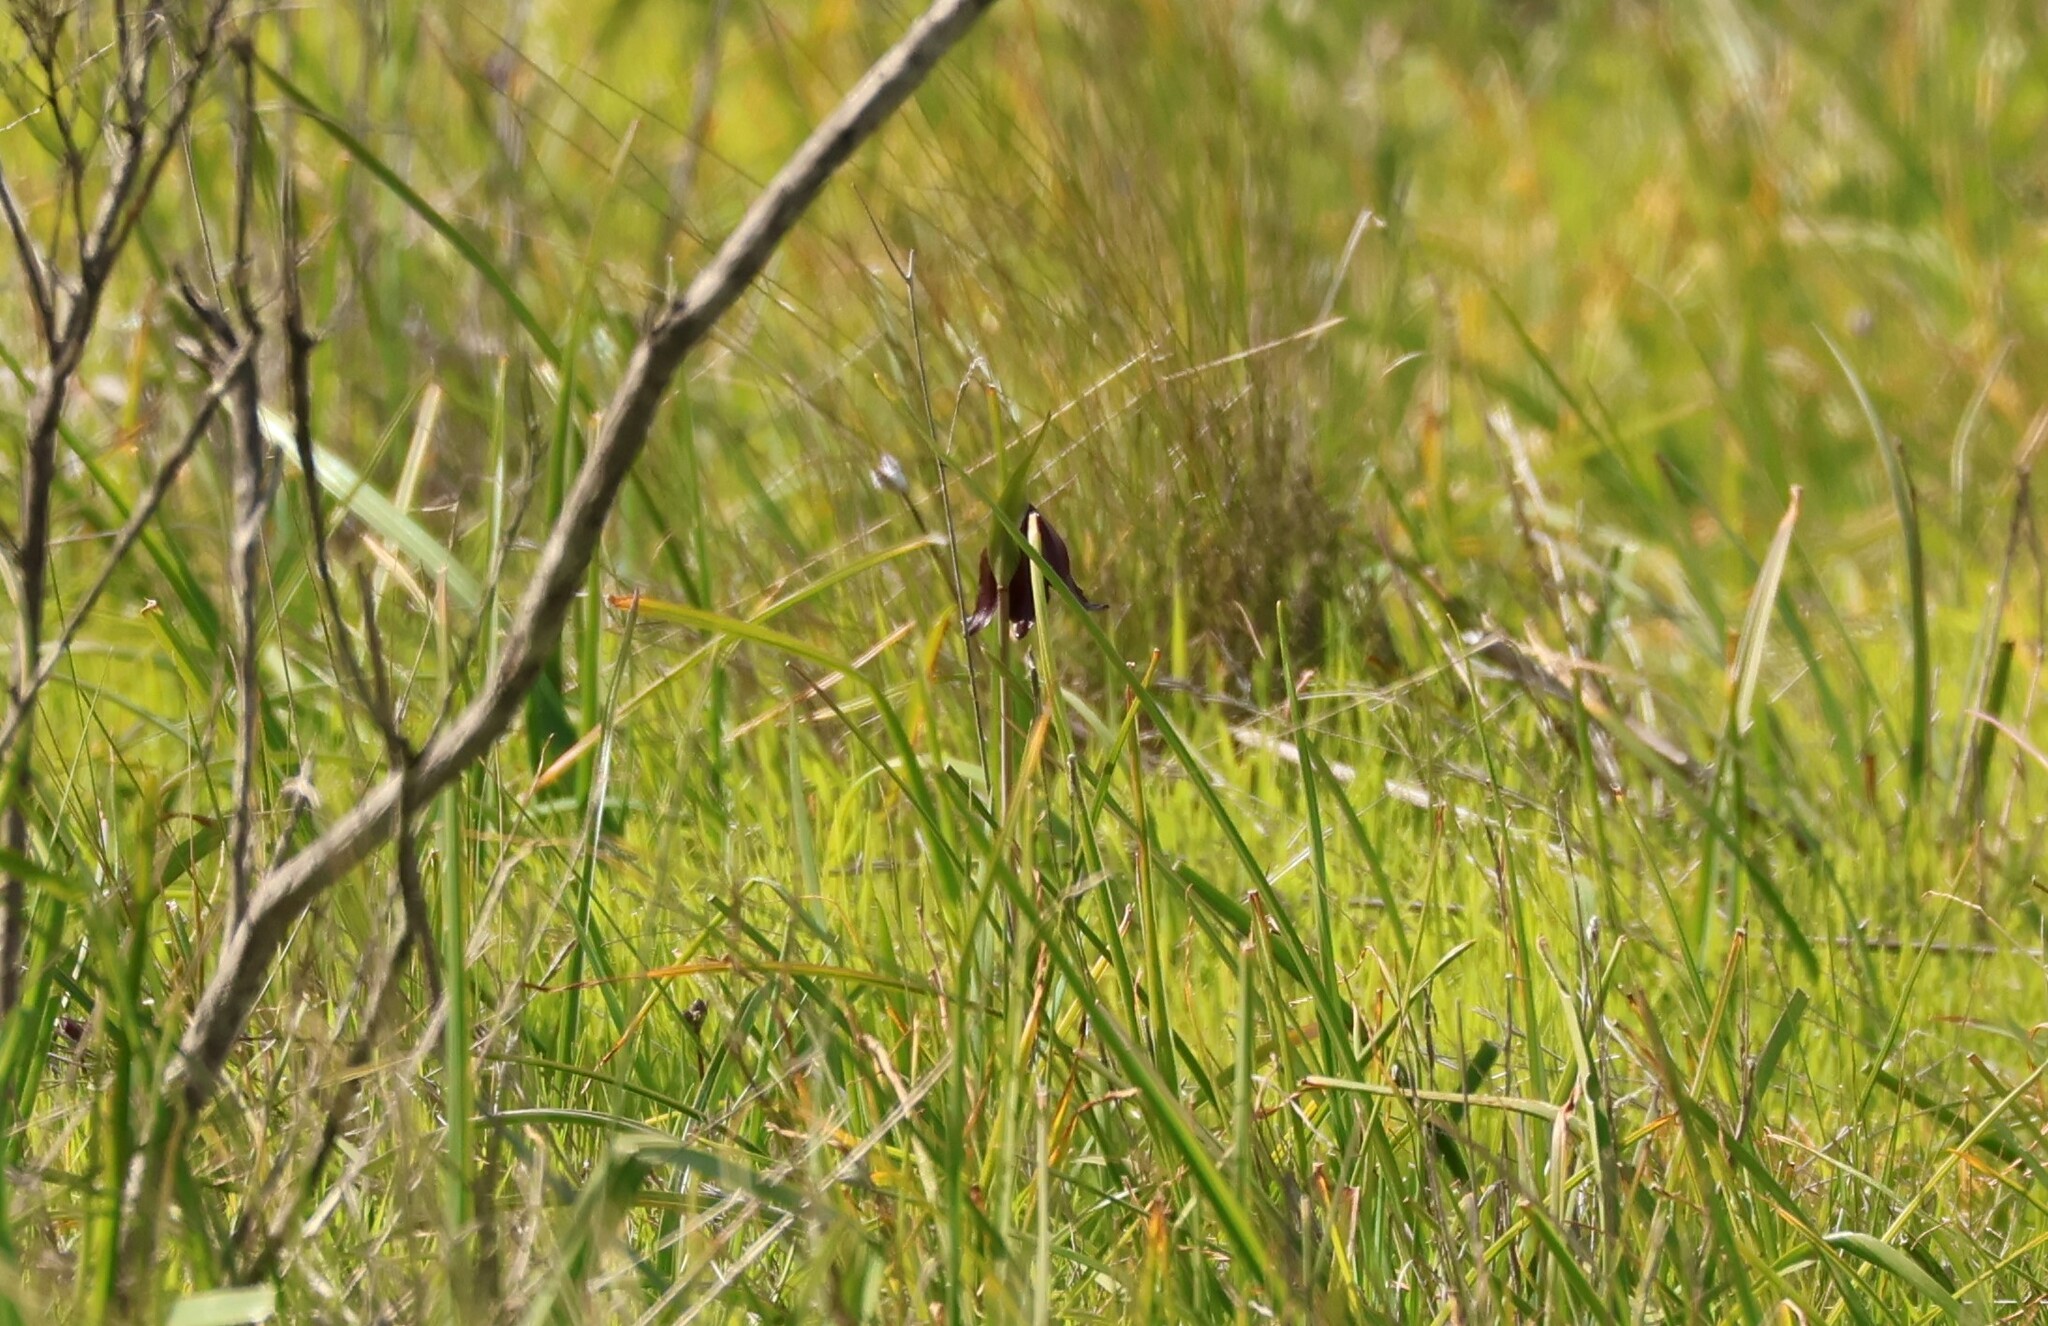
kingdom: Plantae
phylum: Tracheophyta
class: Liliopsida
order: Liliales
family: Liliaceae
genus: Fritillaria
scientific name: Fritillaria biflora
